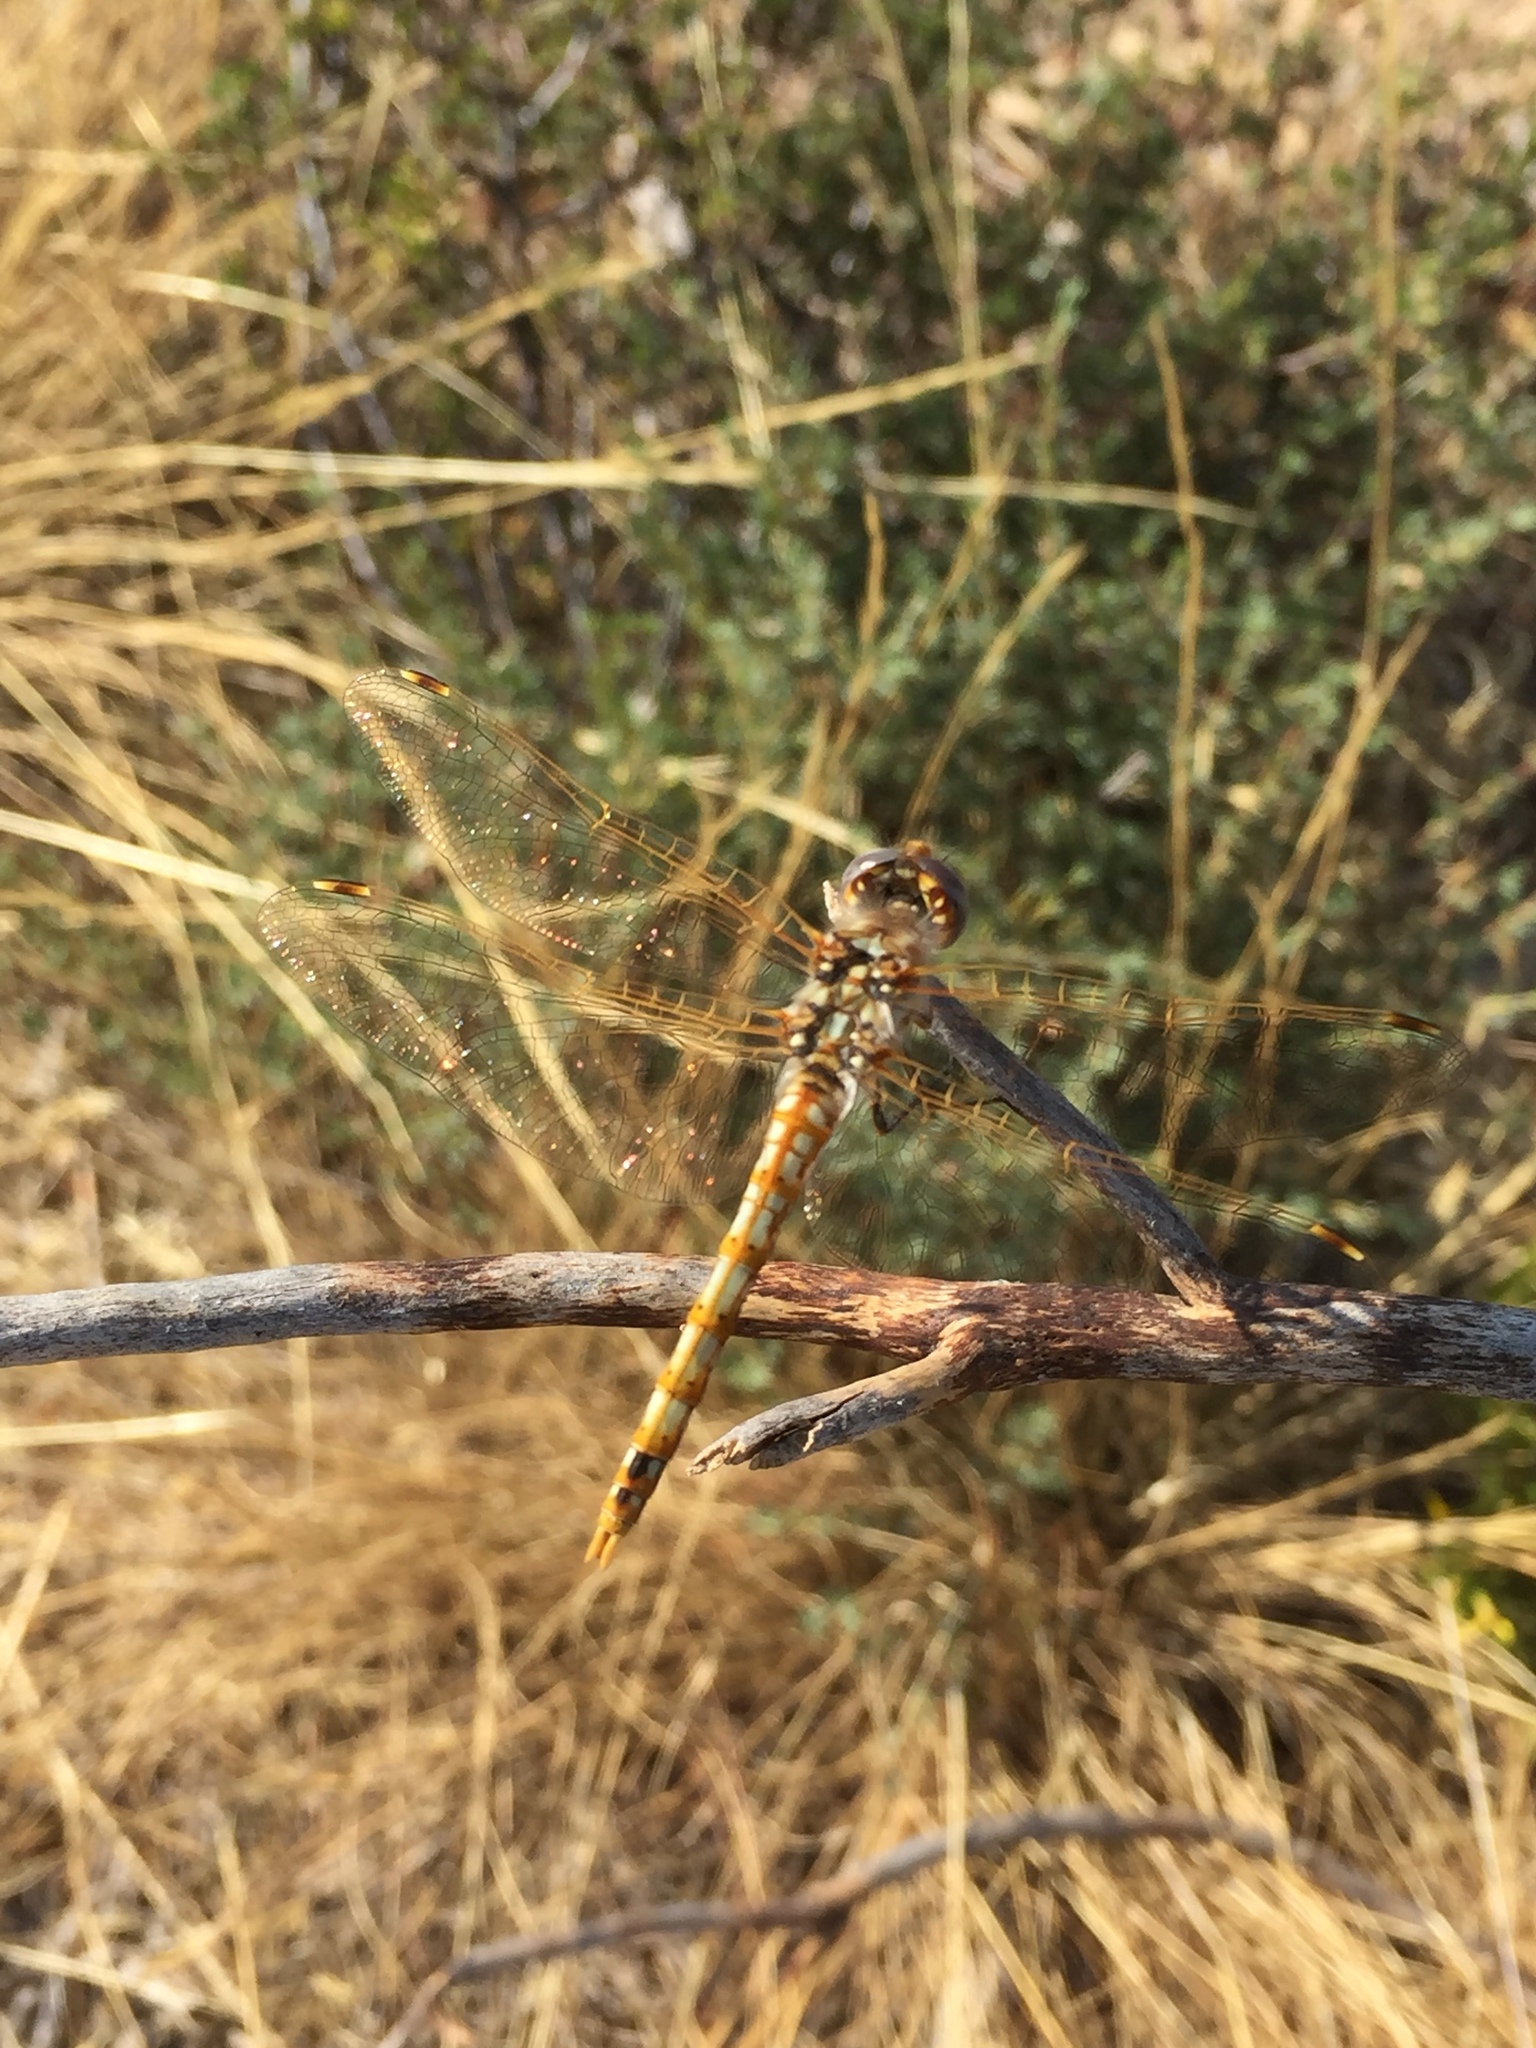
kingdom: Animalia
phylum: Arthropoda
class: Insecta
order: Odonata
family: Libellulidae
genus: Sympetrum
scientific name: Sympetrum corruptum
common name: Variegated meadowhawk
